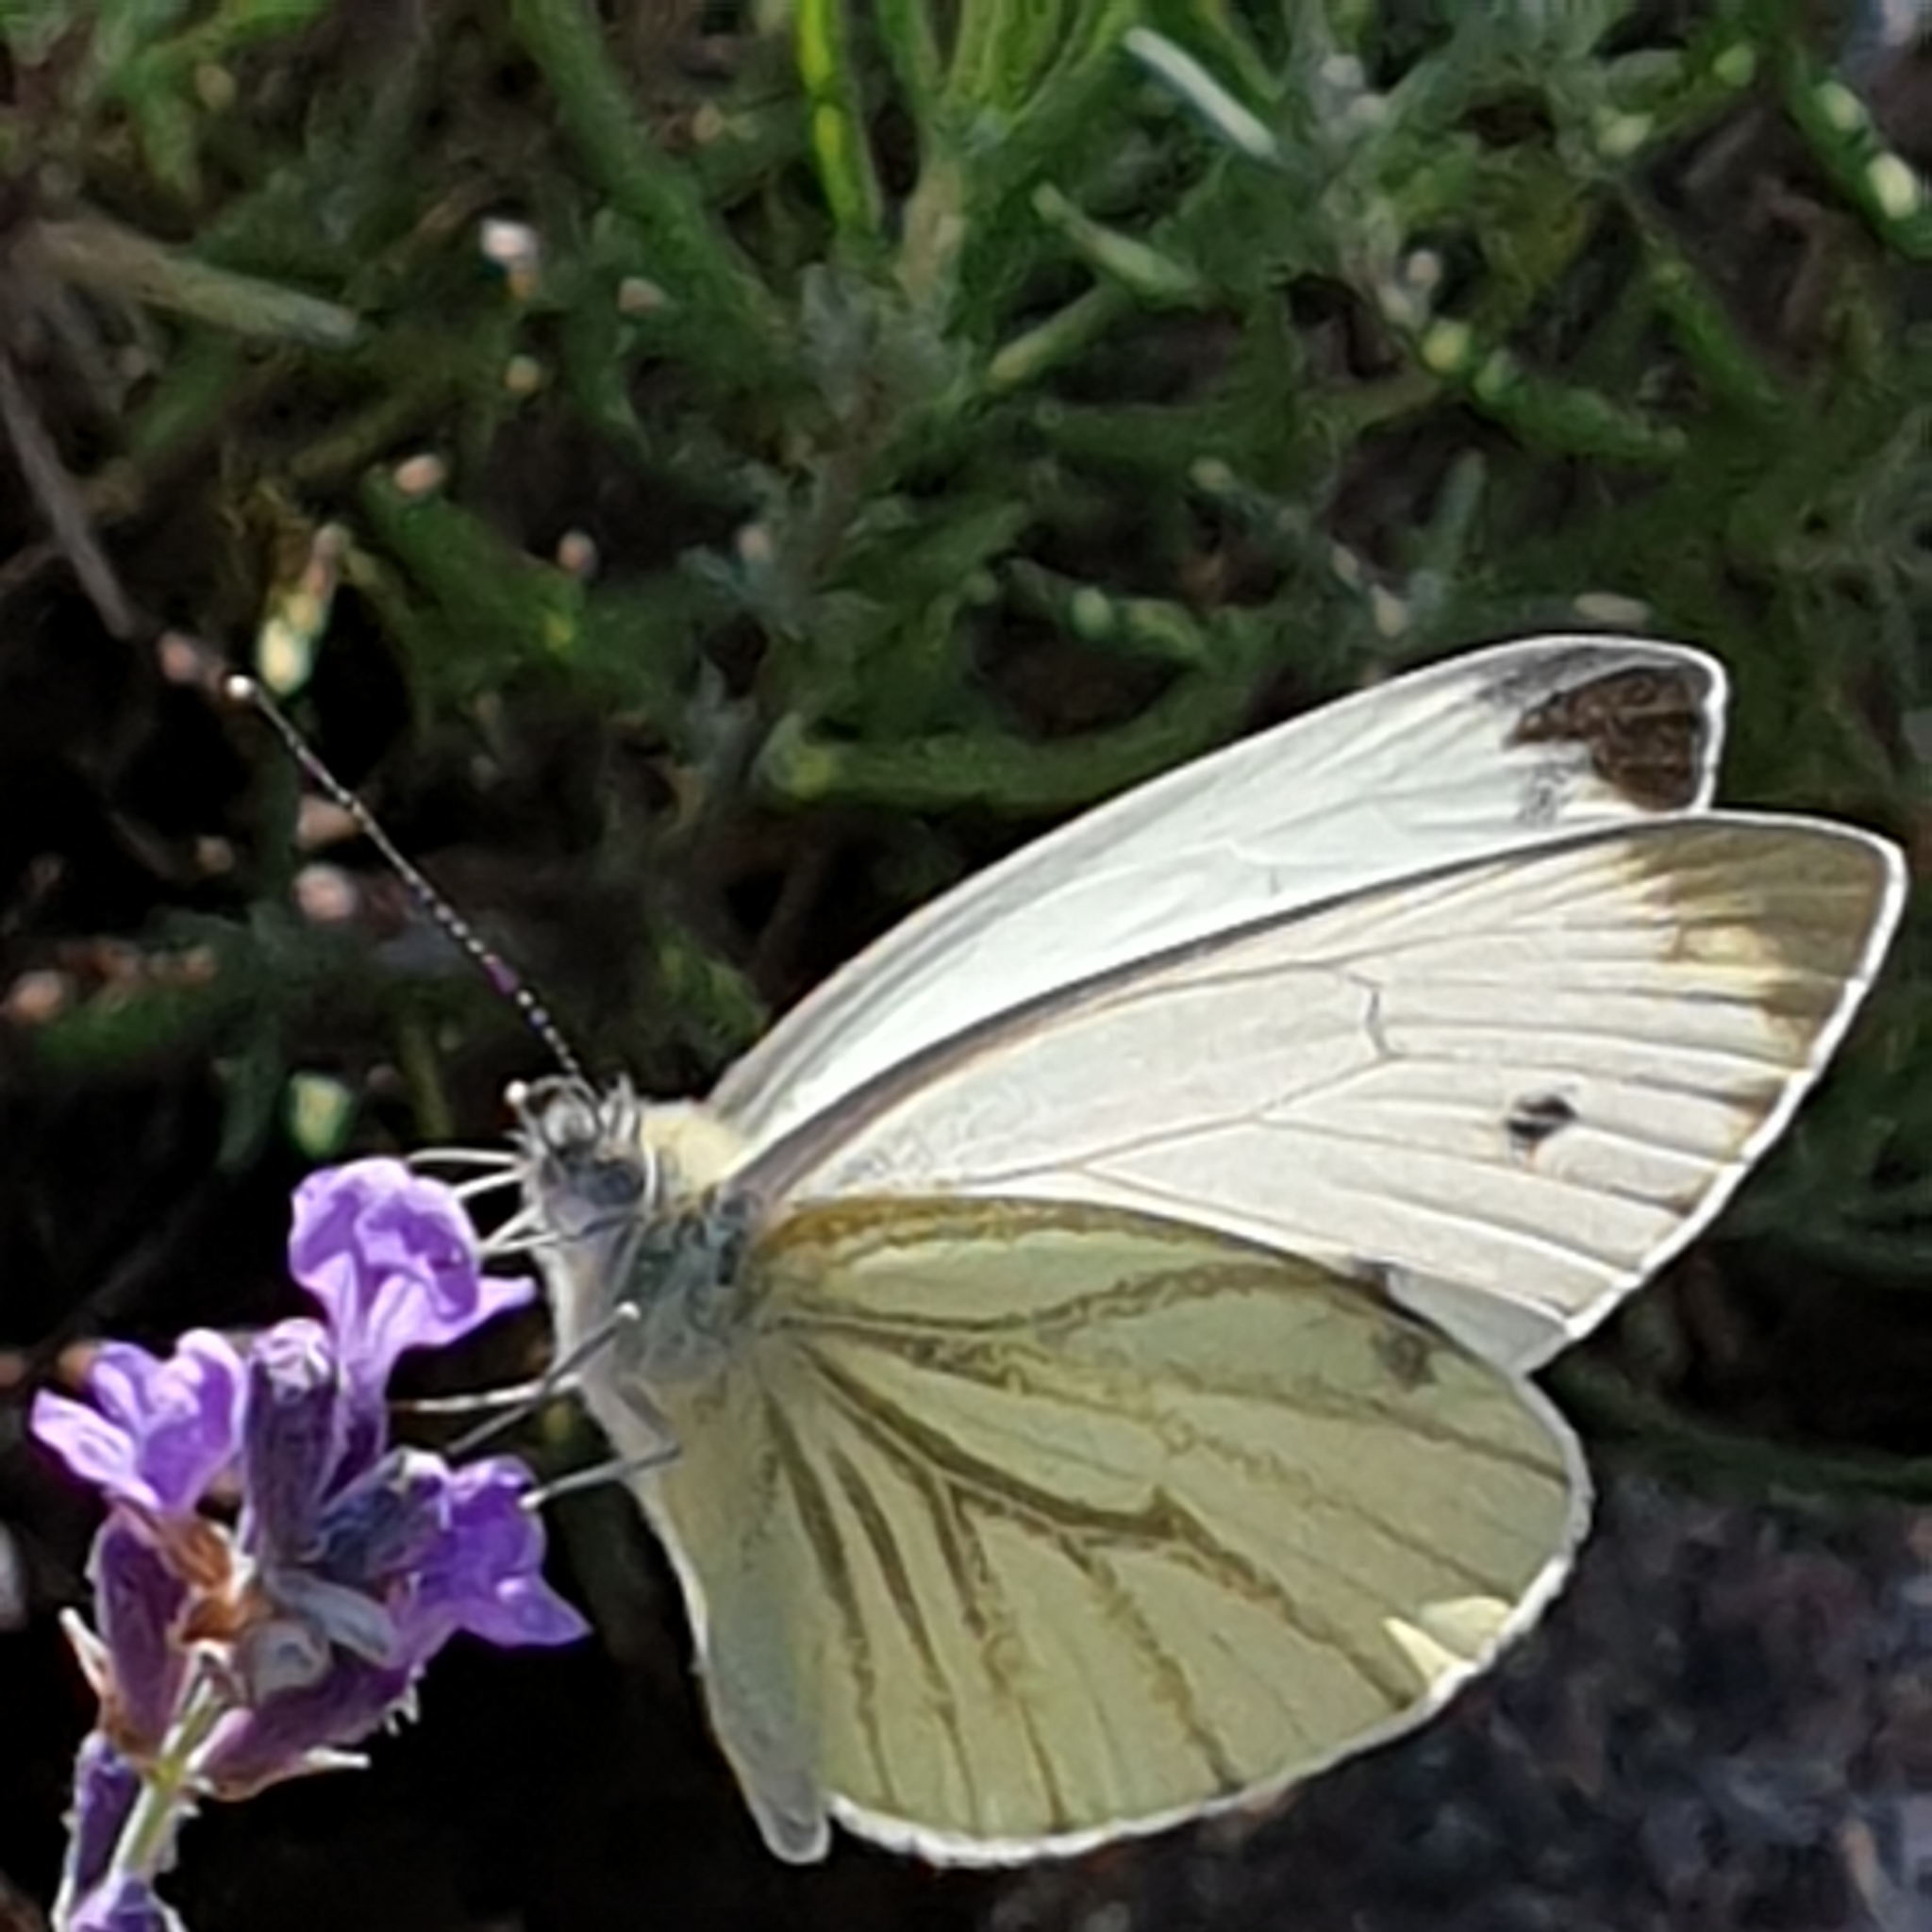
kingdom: Animalia
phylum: Arthropoda
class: Insecta
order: Lepidoptera
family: Pieridae
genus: Pieris
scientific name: Pieris napi
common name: Green-veined white
